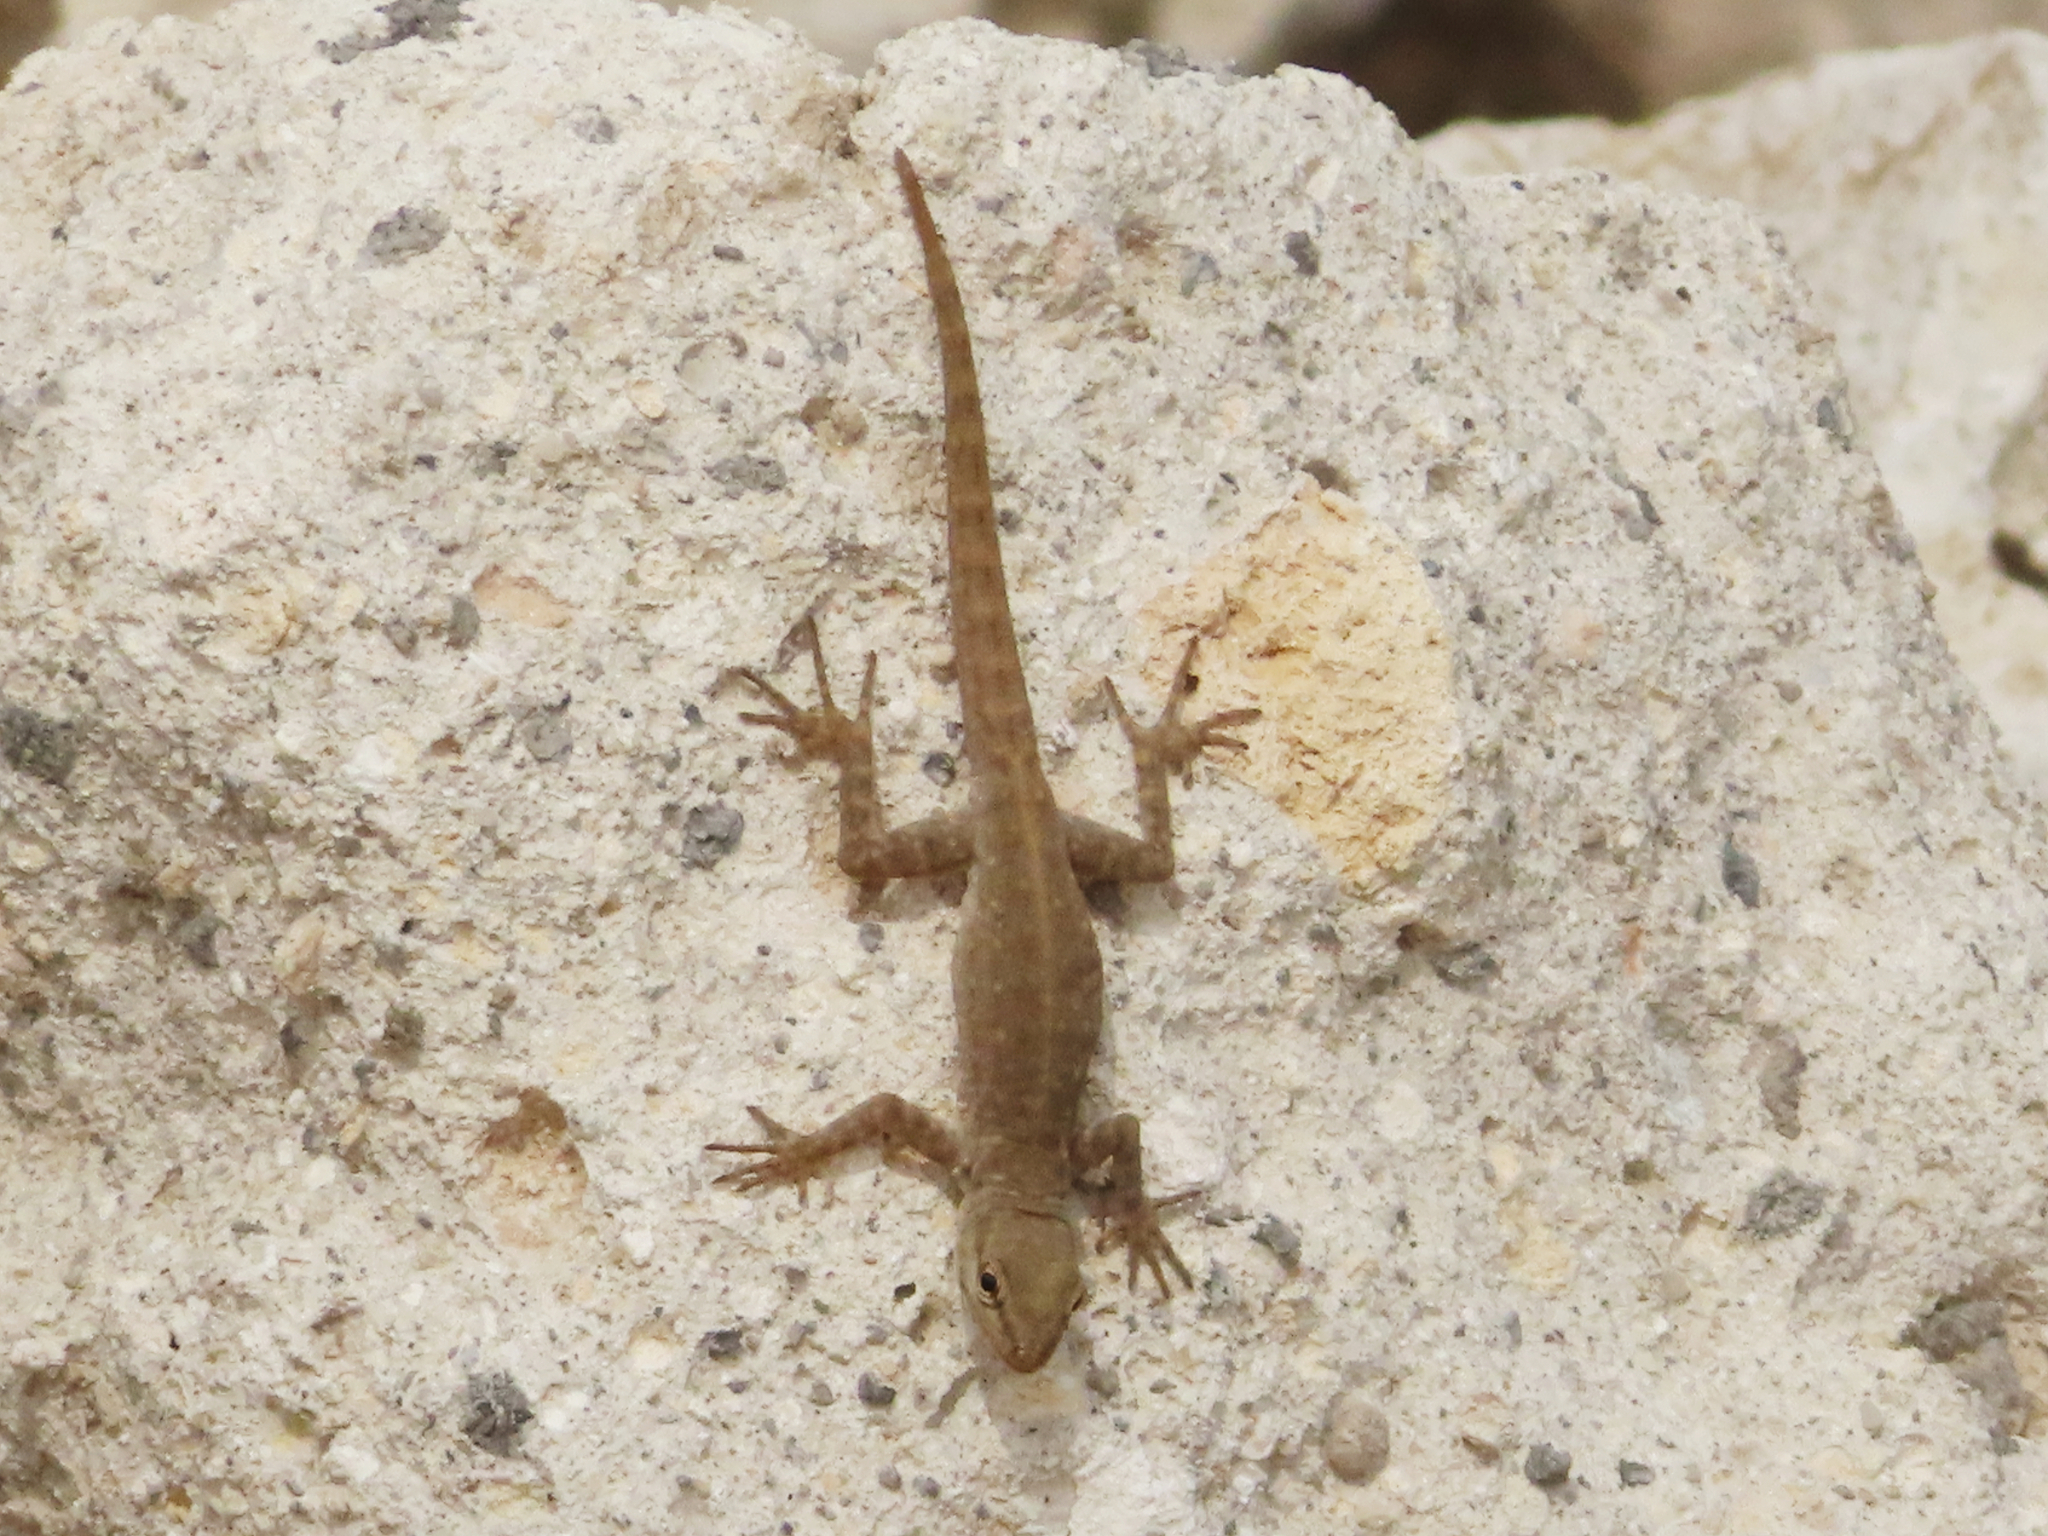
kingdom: Animalia
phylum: Chordata
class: Squamata
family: Sphaerodactylidae
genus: Pristurus
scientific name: Pristurus rupestris
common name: Blanford’s semaphore gecko
